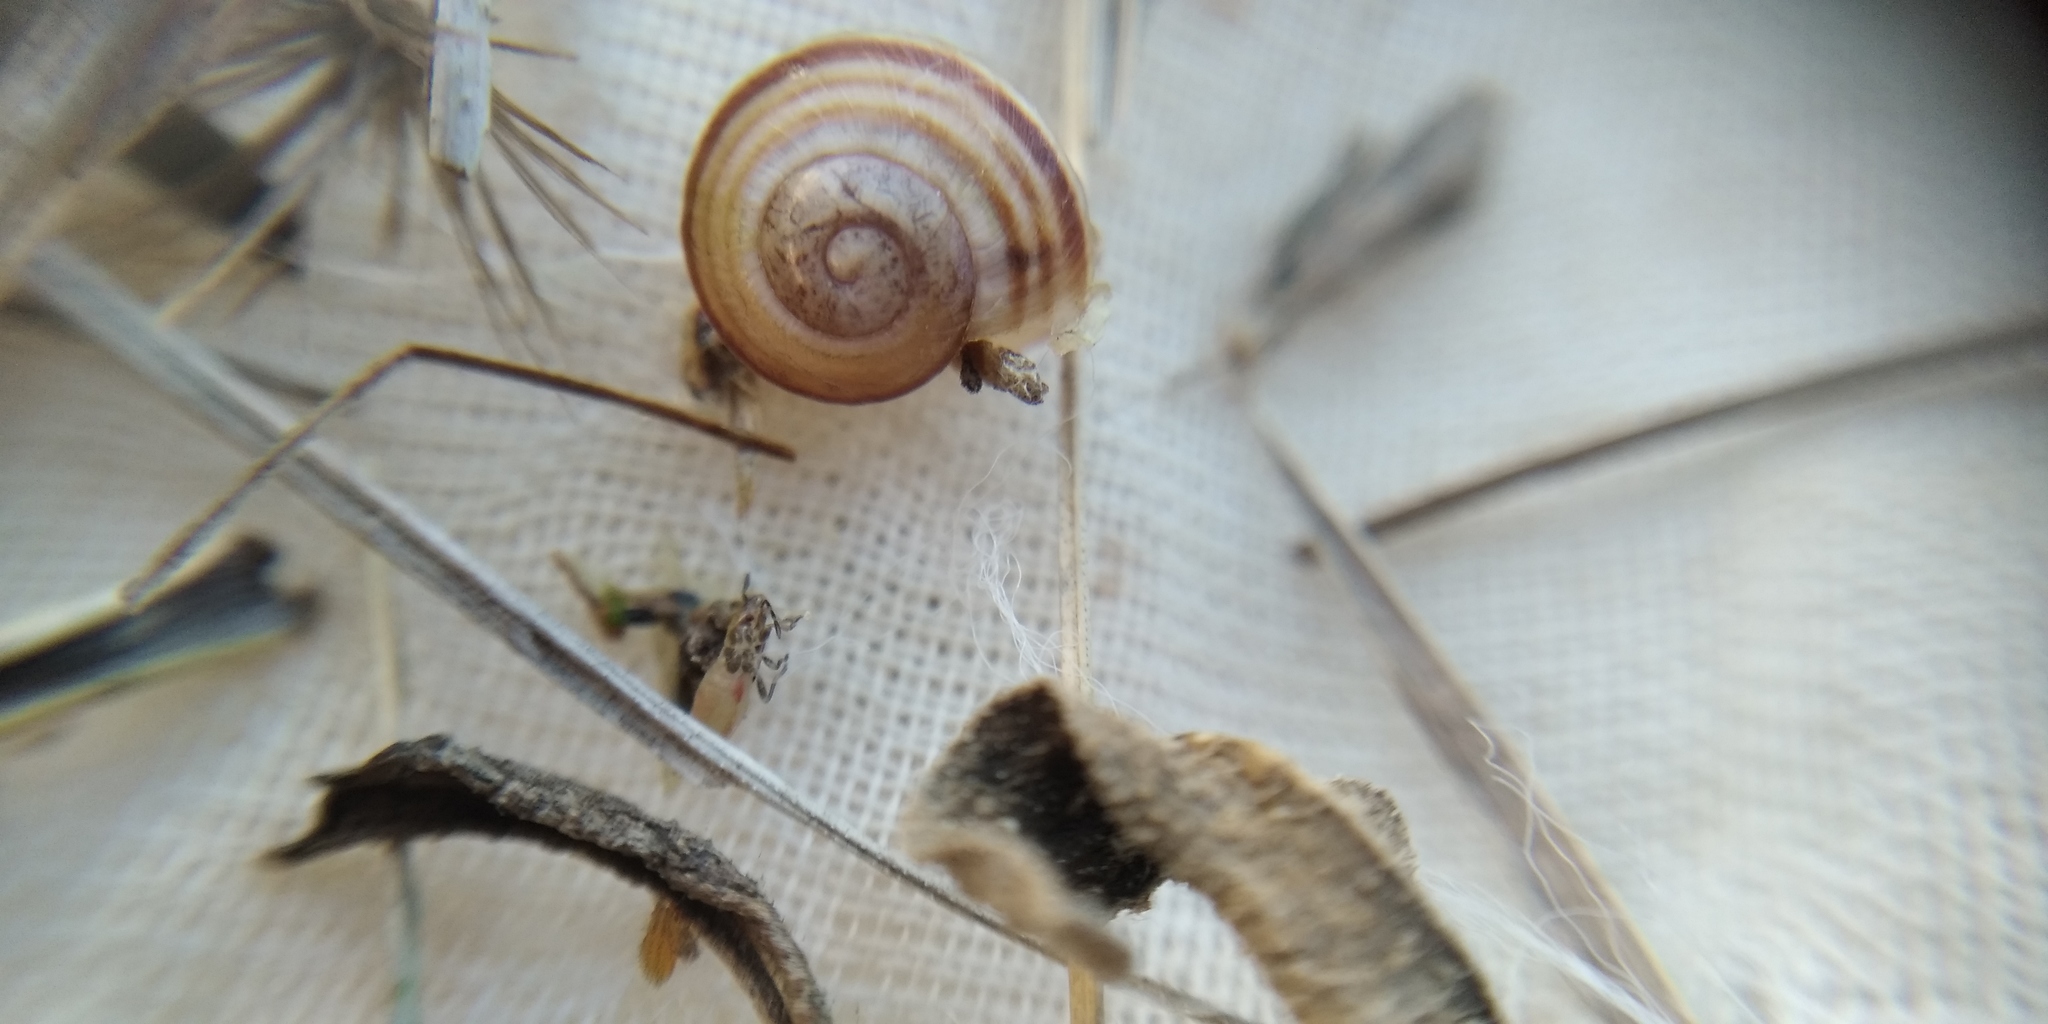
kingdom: Animalia
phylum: Mollusca
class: Gastropoda
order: Stylommatophora
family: Helicidae
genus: Caucasotachea
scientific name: Caucasotachea vindobonensis
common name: European helicid land snail
